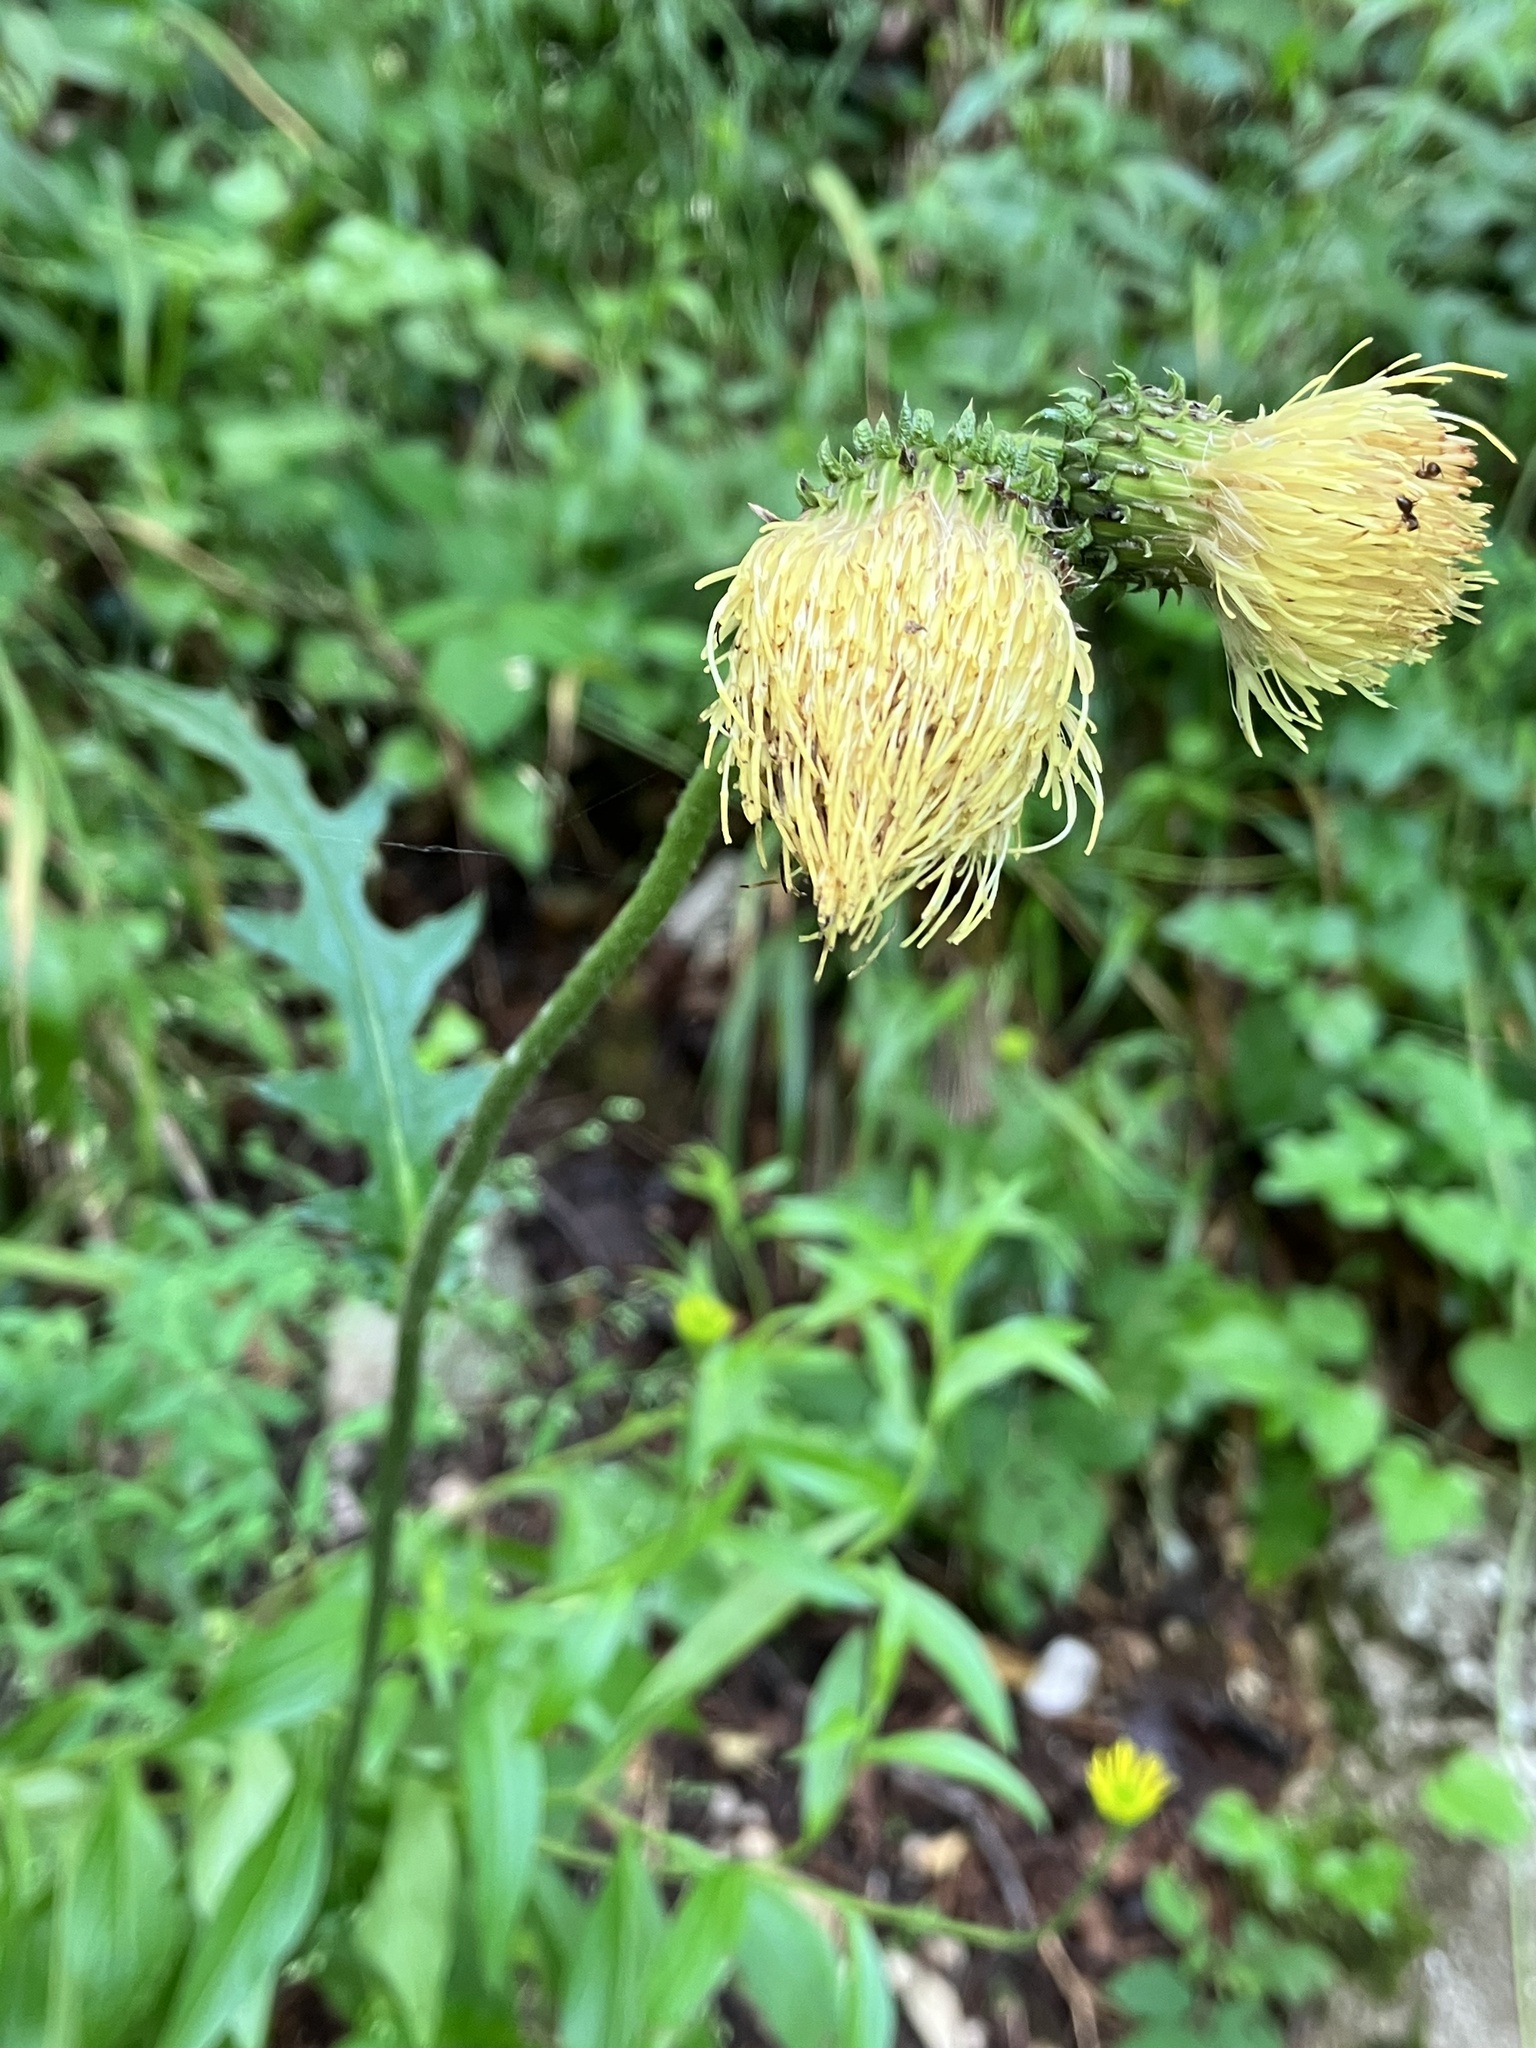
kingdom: Plantae
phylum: Tracheophyta
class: Magnoliopsida
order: Asterales
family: Asteraceae
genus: Cirsium
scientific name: Cirsium erisithales
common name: Yellow thistle
